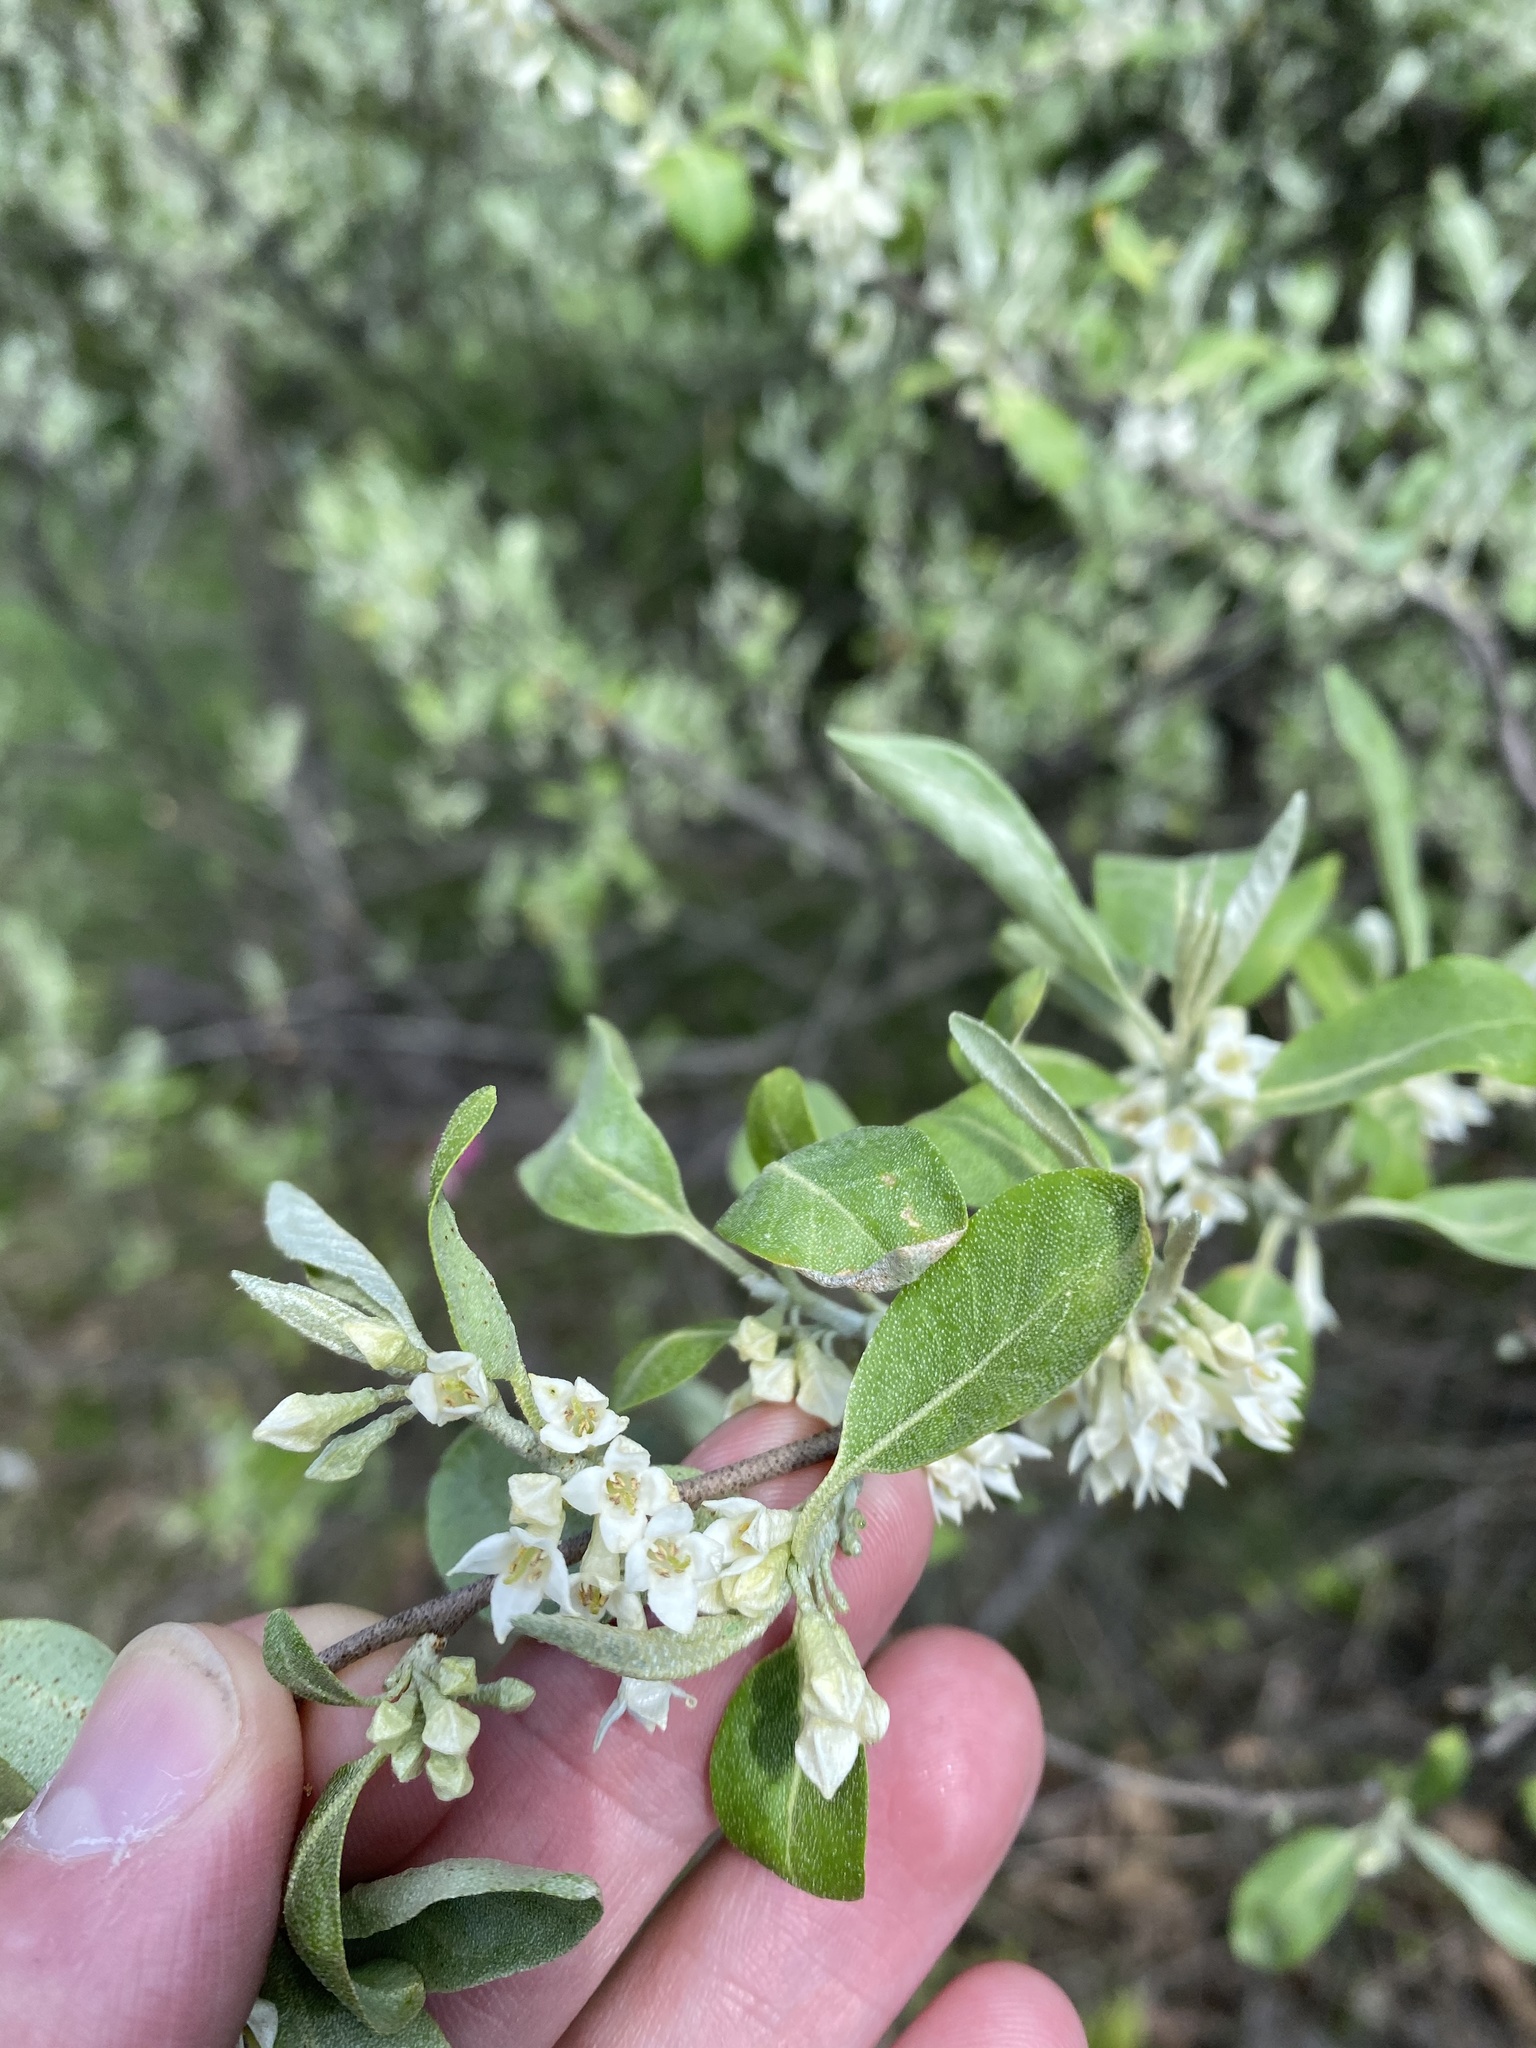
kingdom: Plantae
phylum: Tracheophyta
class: Magnoliopsida
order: Rosales
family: Elaeagnaceae
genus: Elaeagnus
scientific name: Elaeagnus umbellata
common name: Autumn olive
